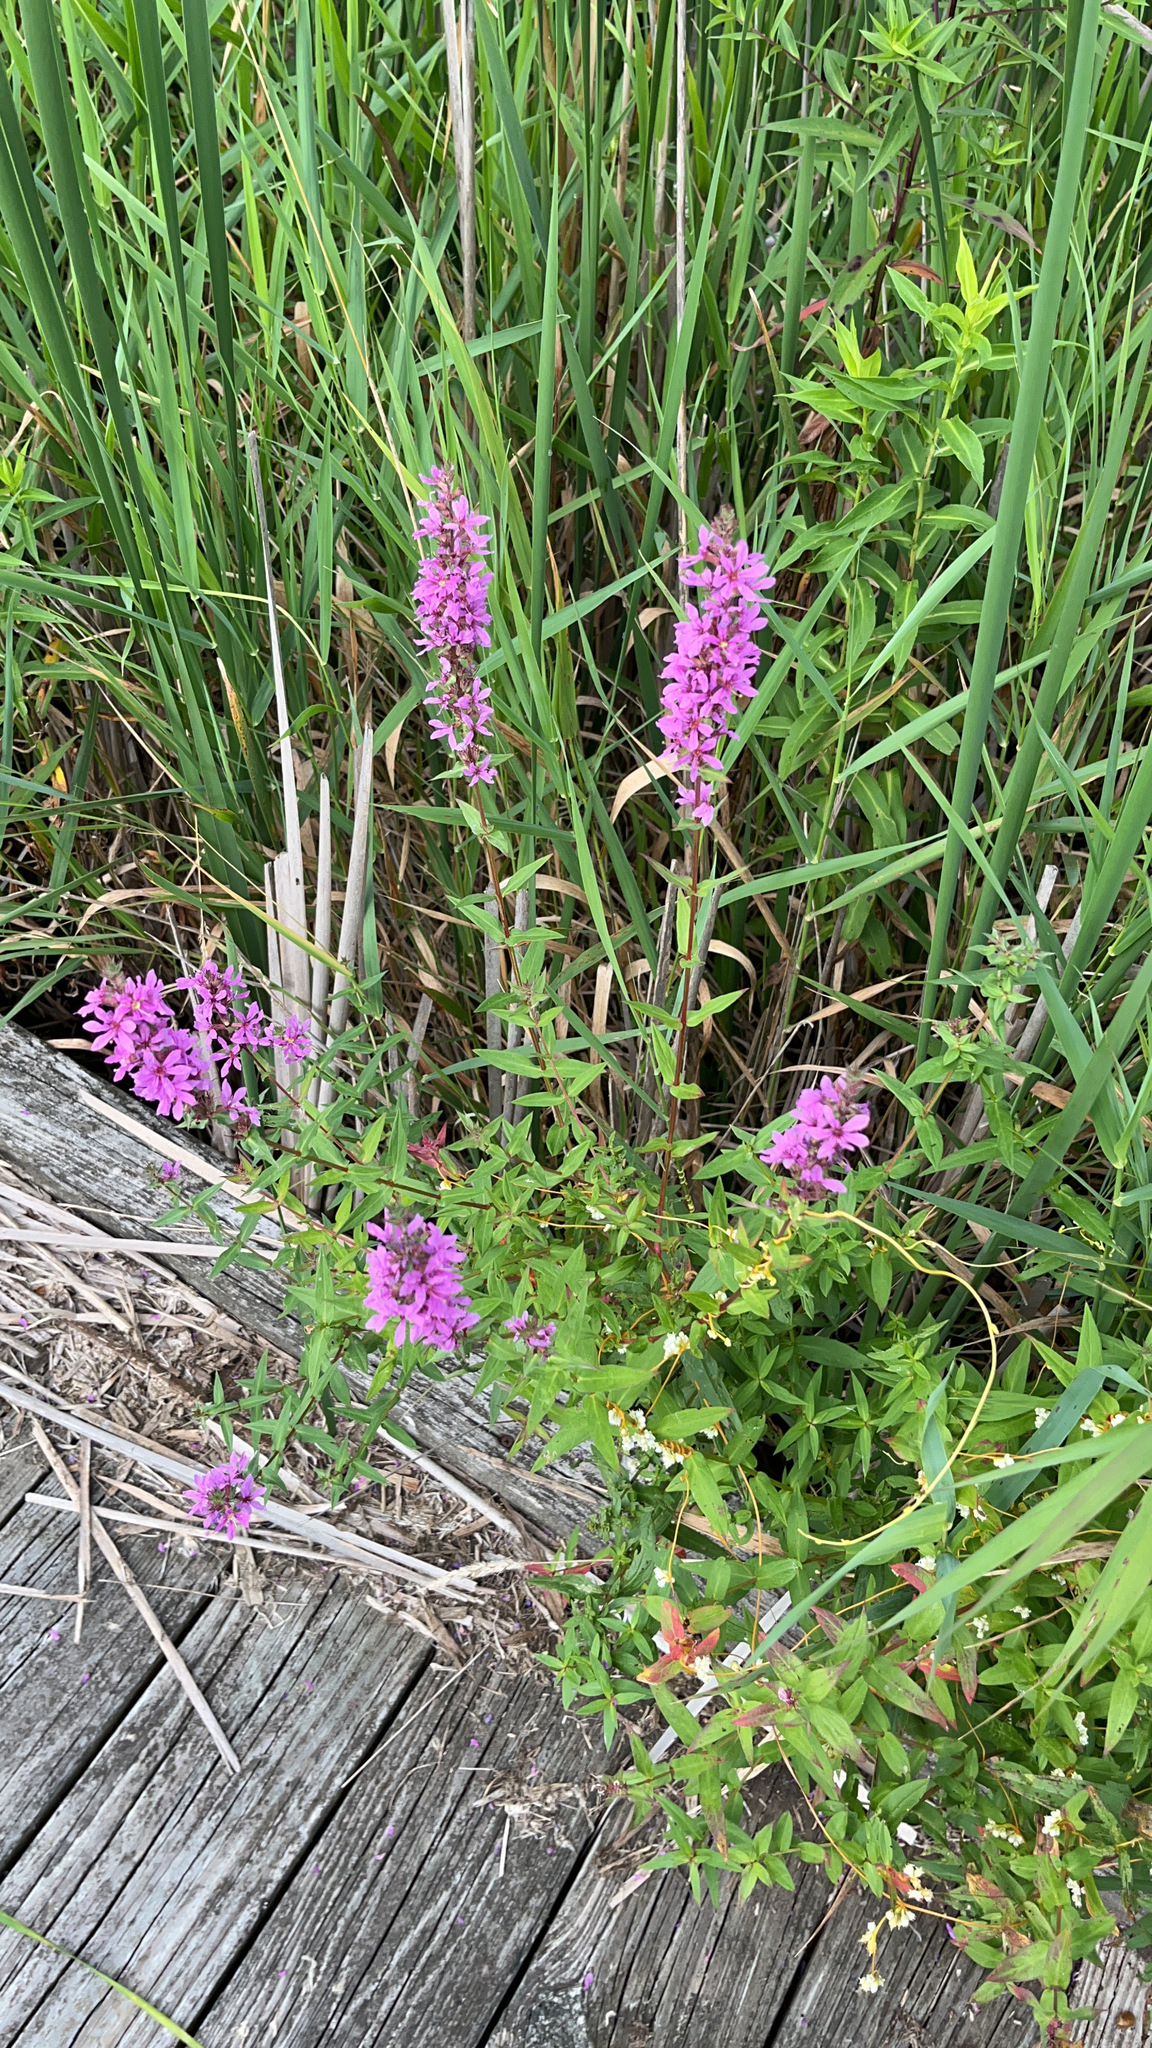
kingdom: Plantae
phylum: Tracheophyta
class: Magnoliopsida
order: Myrtales
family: Lythraceae
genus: Lythrum
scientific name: Lythrum salicaria
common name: Purple loosestrife
